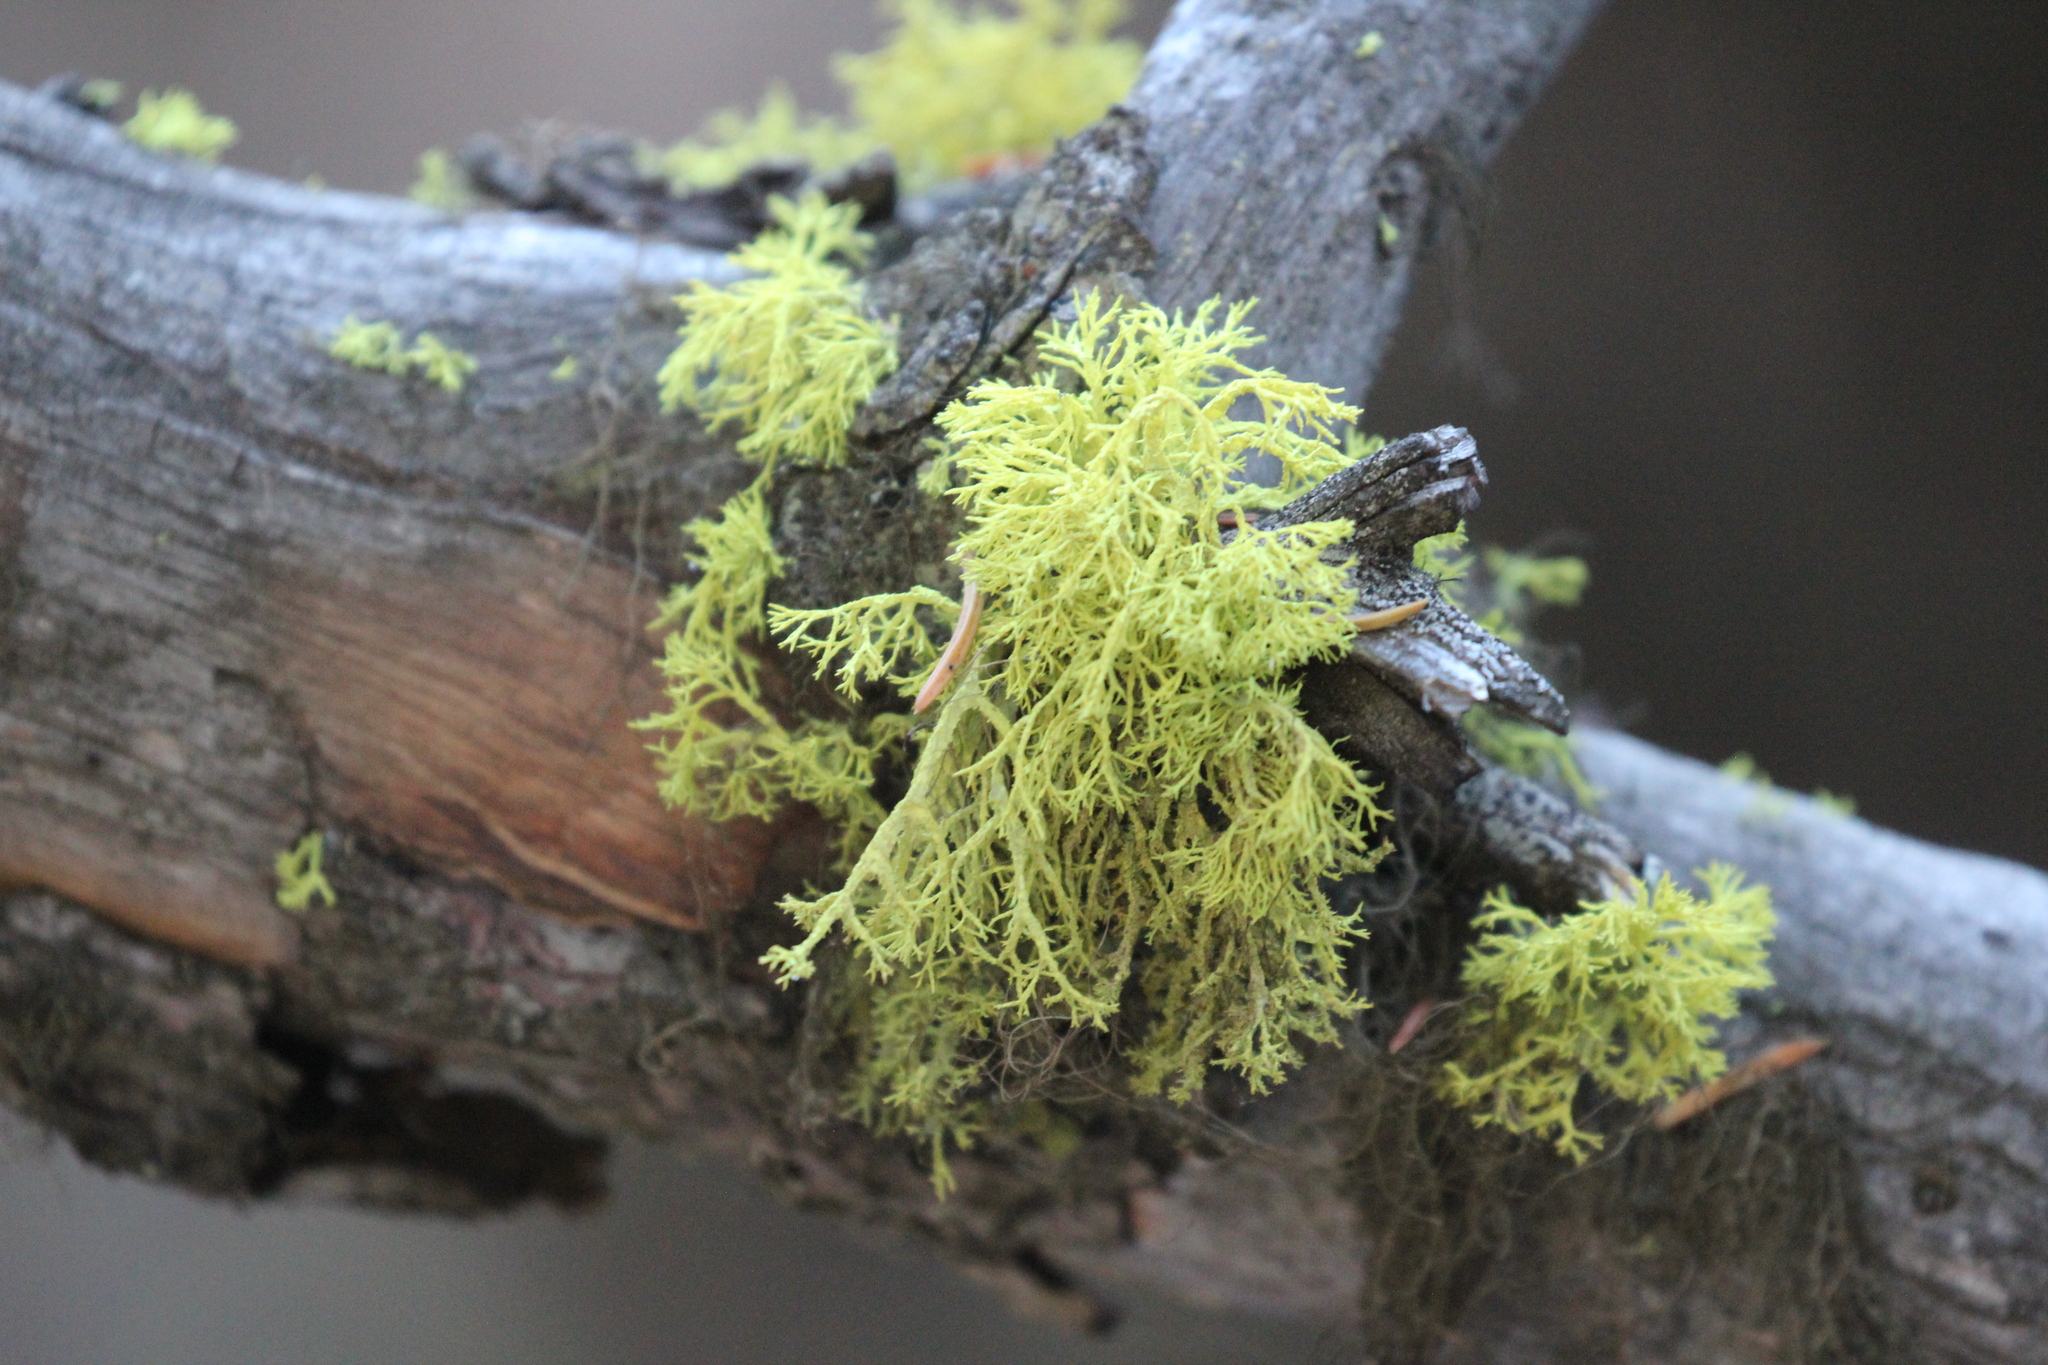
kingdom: Fungi
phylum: Ascomycota
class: Lecanoromycetes
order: Lecanorales
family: Parmeliaceae
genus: Letharia
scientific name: Letharia vulpina
